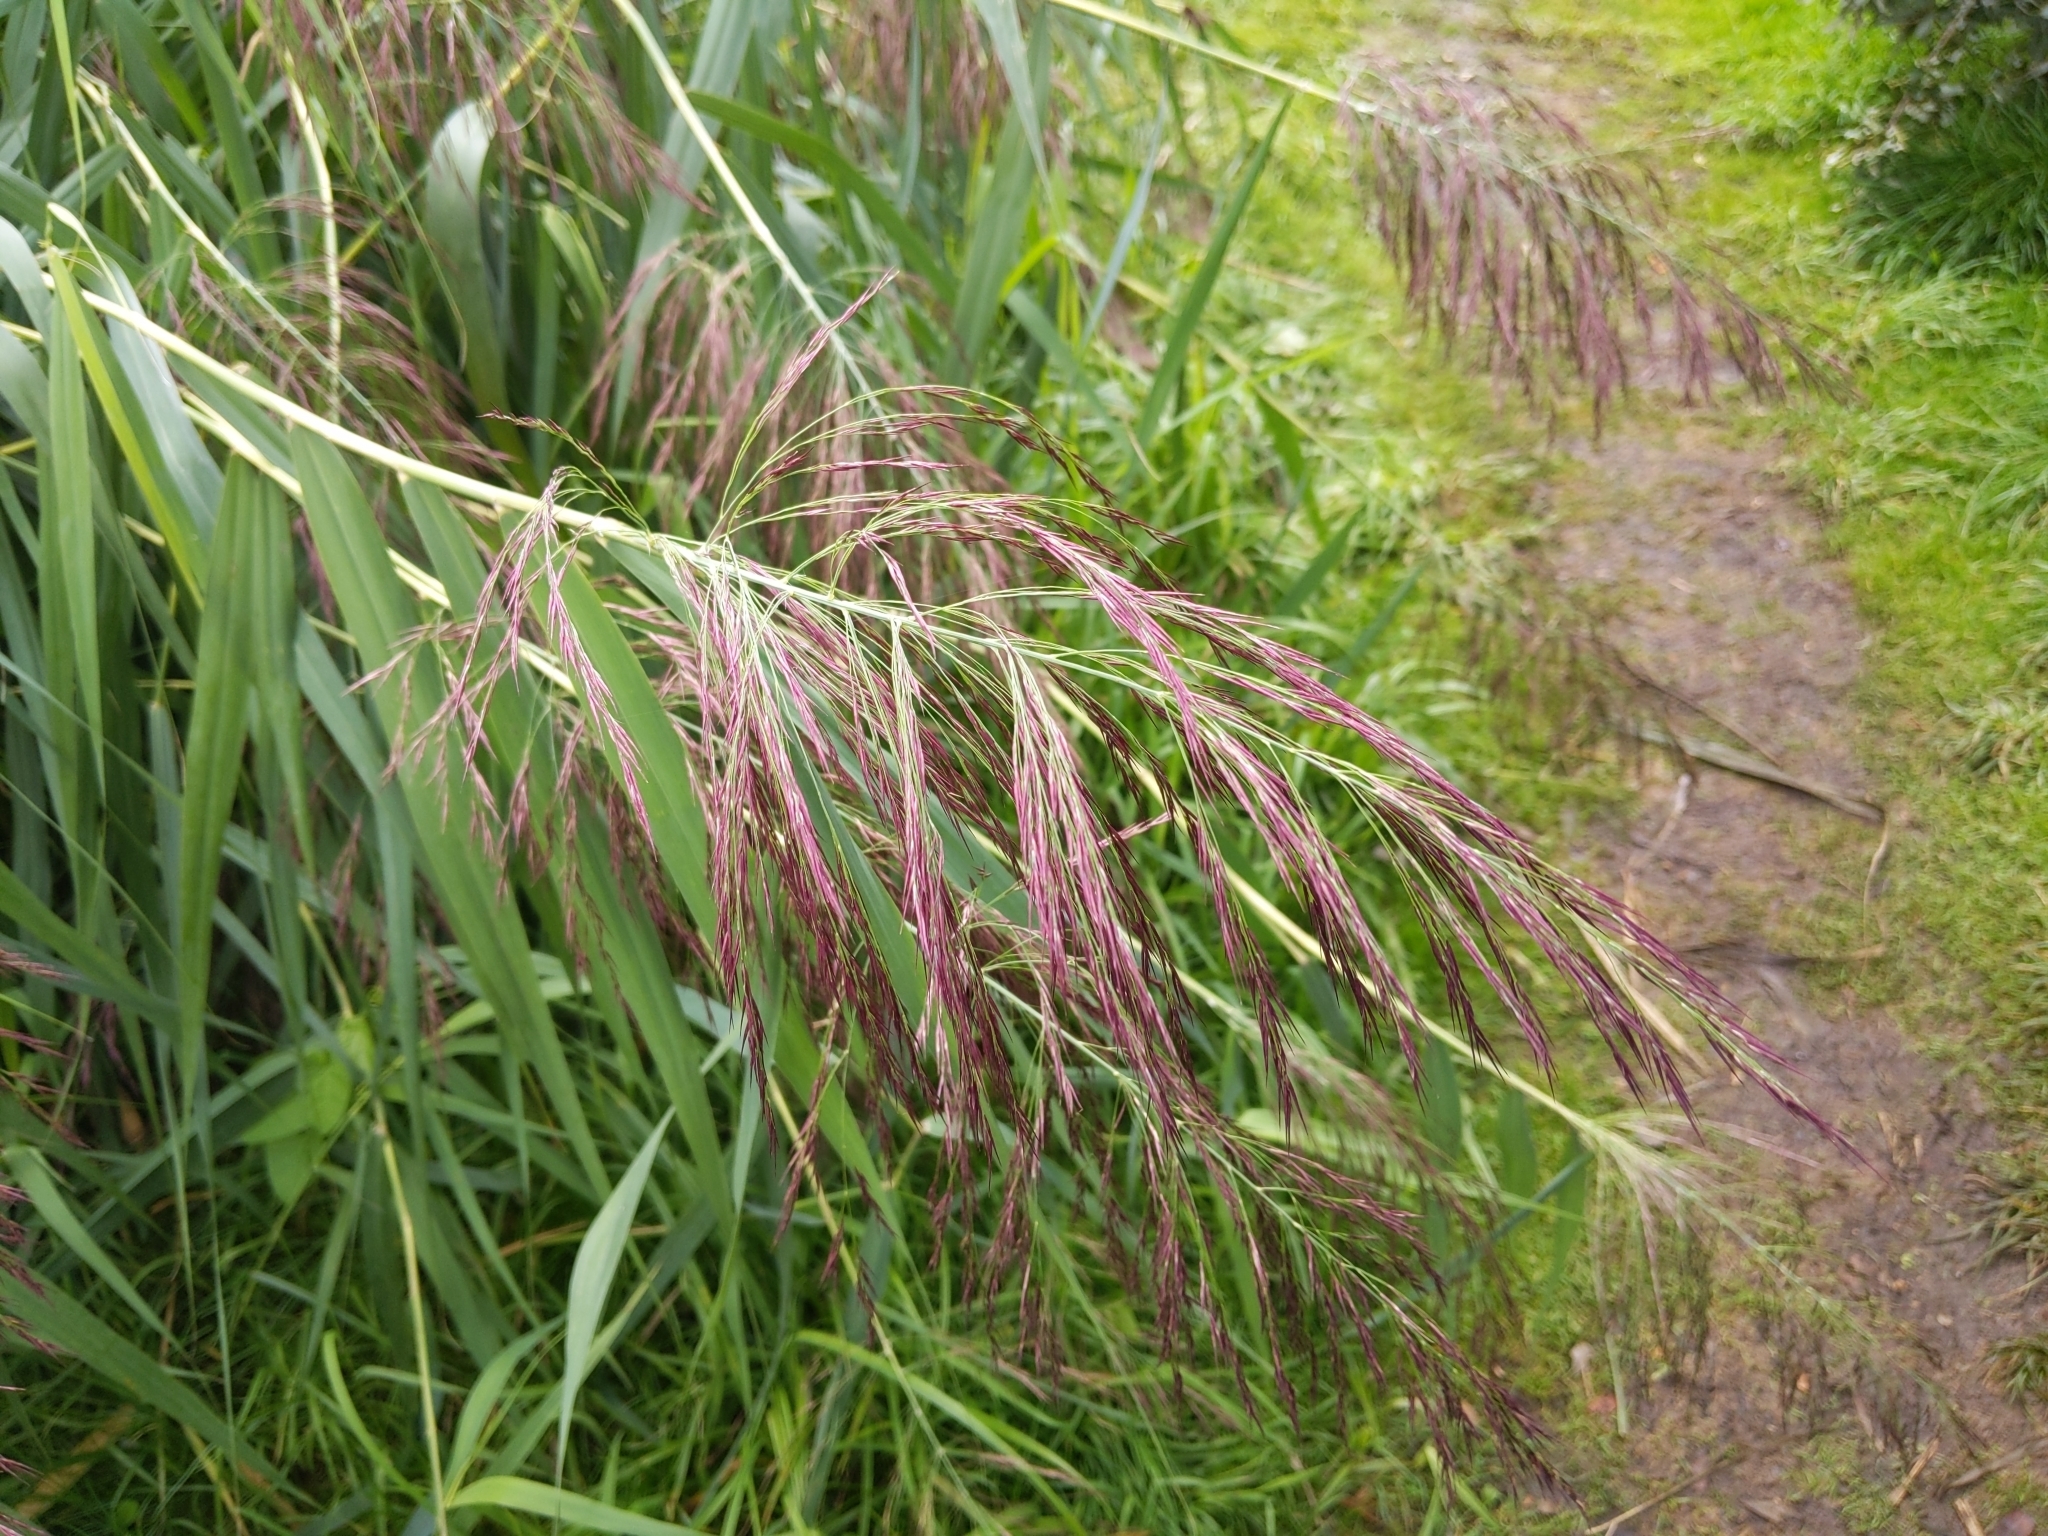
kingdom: Plantae
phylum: Tracheophyta
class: Liliopsida
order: Poales
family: Poaceae
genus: Phragmites
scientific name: Phragmites australis
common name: Common reed
